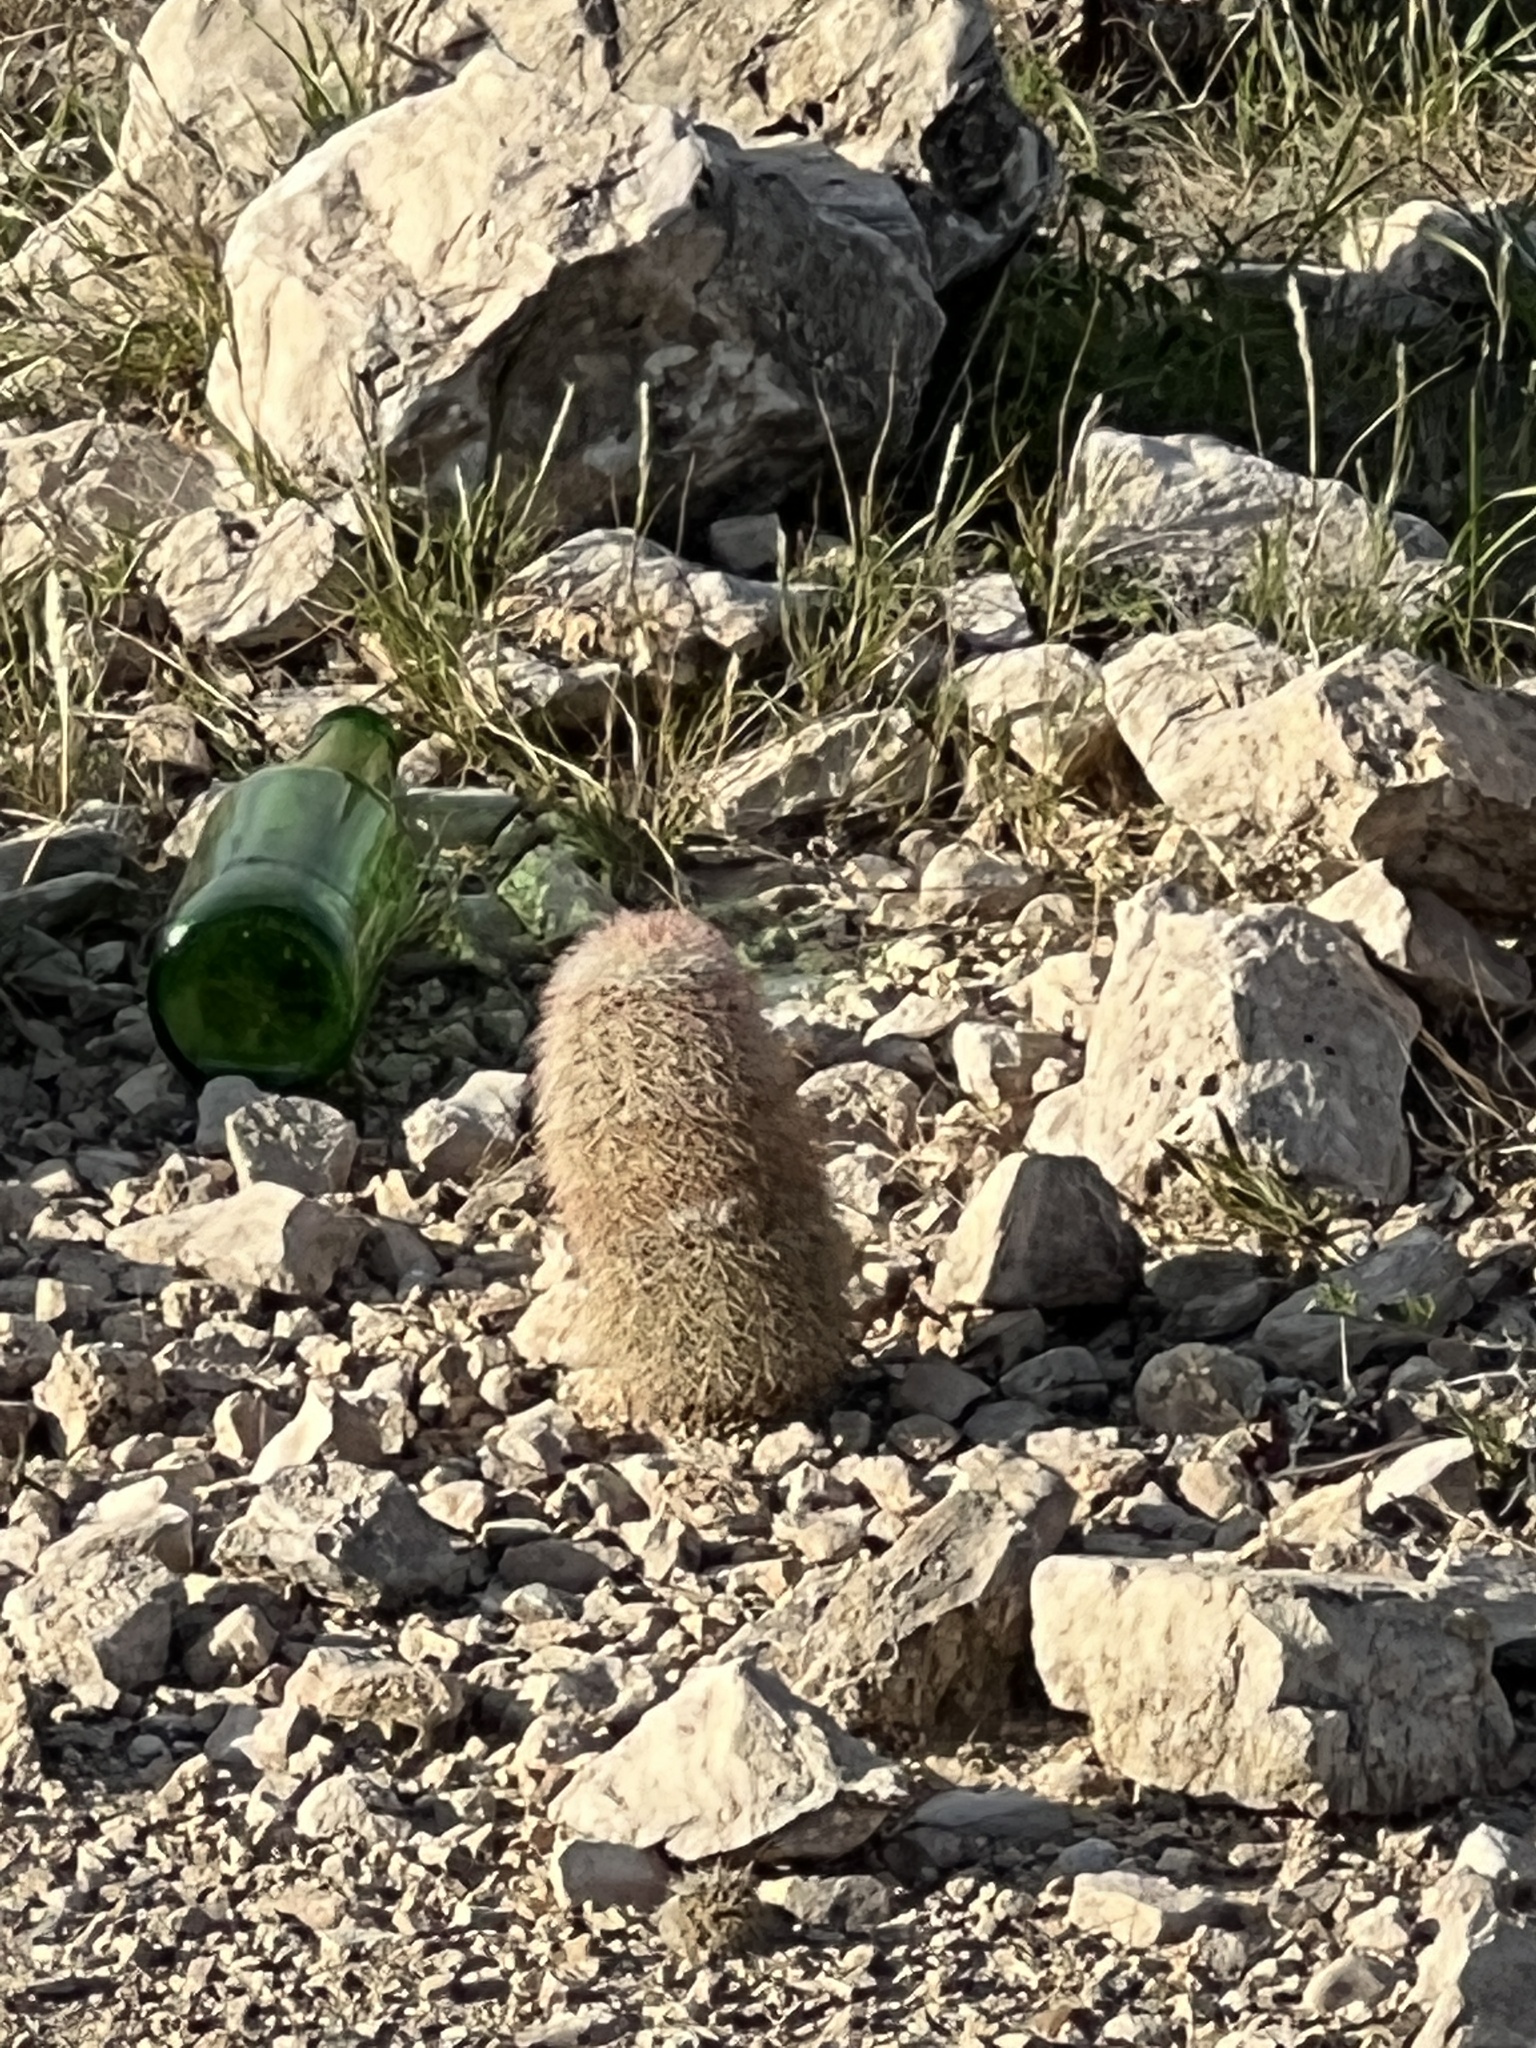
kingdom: Plantae
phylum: Tracheophyta
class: Magnoliopsida
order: Caryophyllales
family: Cactaceae
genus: Echinocereus
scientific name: Echinocereus dasyacanthus
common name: Spiny hedgehog cactus
